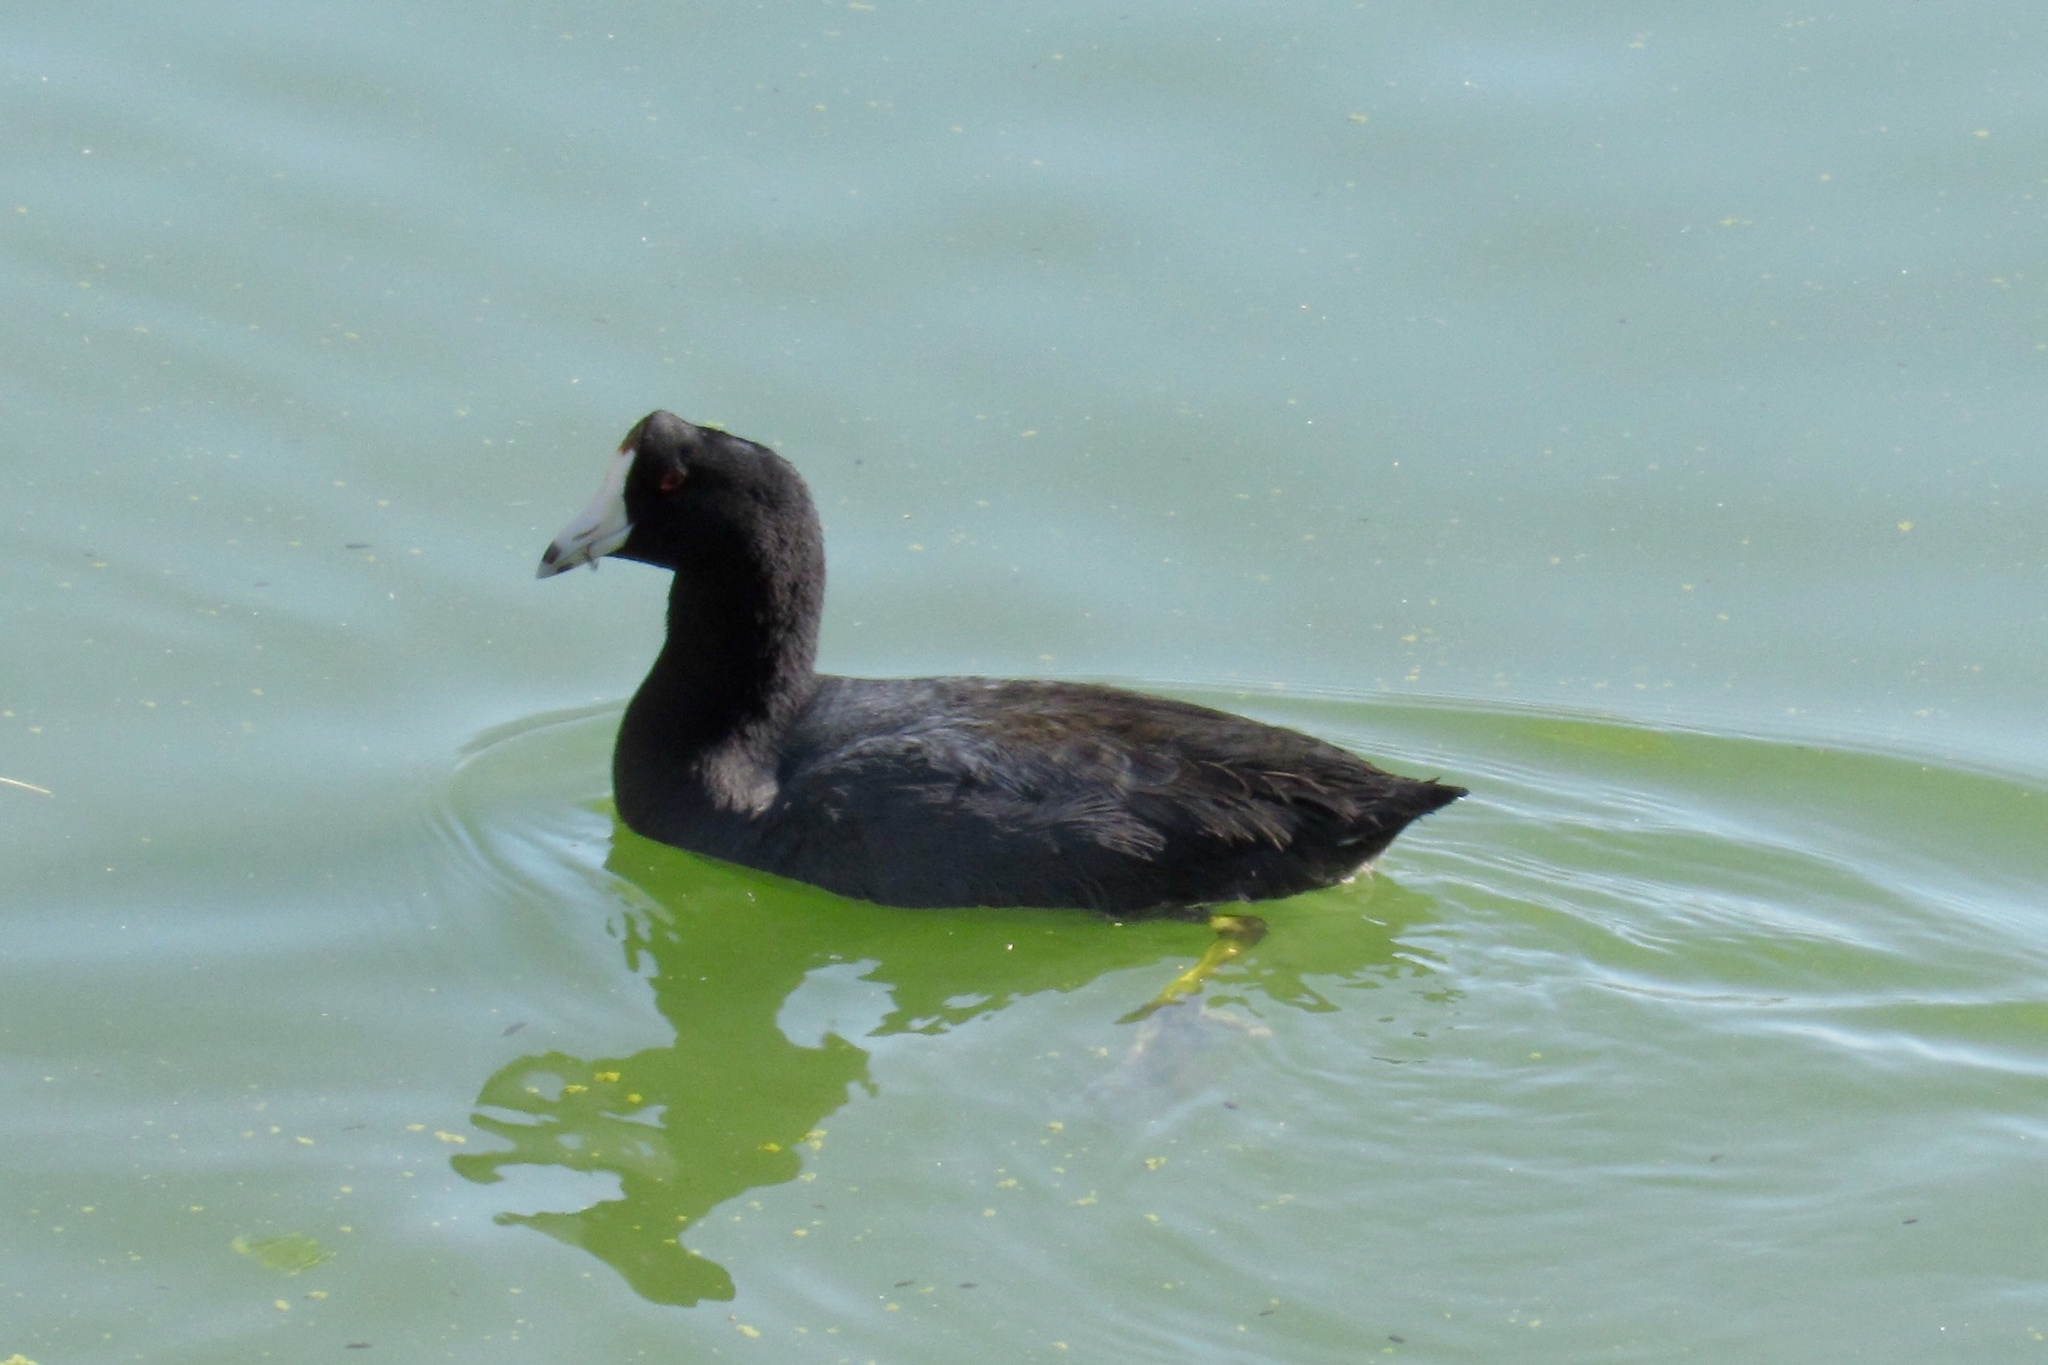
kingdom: Animalia
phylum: Chordata
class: Aves
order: Gruiformes
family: Rallidae
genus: Fulica
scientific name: Fulica americana
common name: American coot
